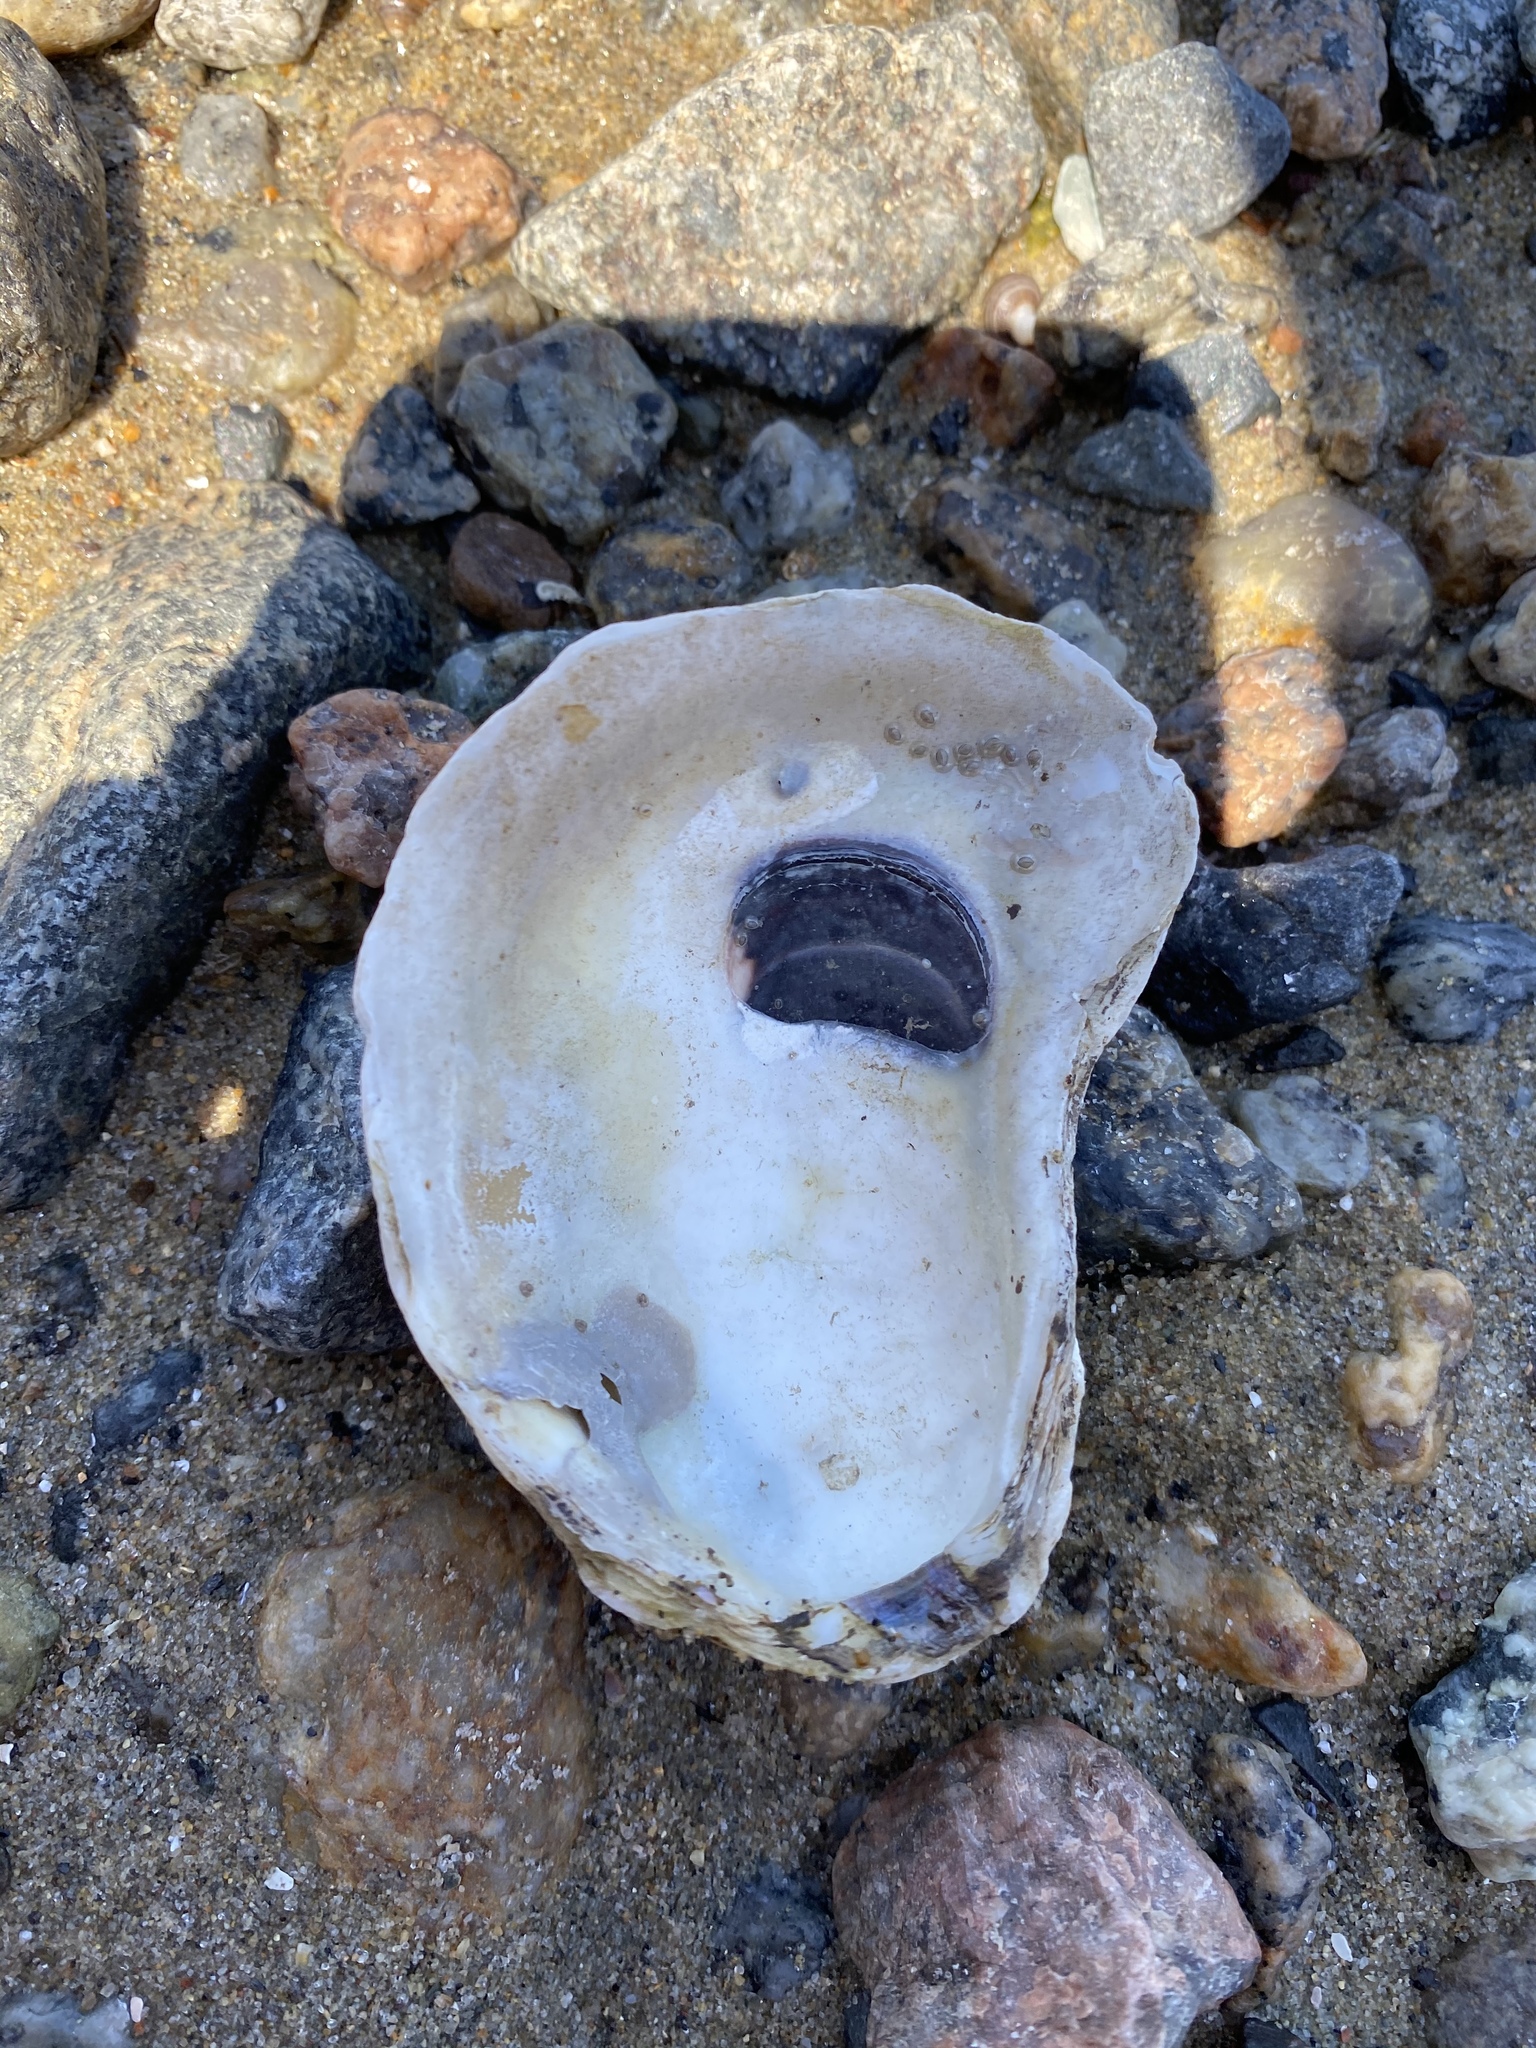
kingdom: Animalia
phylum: Mollusca
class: Bivalvia
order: Ostreida
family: Ostreidae
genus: Crassostrea
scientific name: Crassostrea virginica
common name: American oyster
